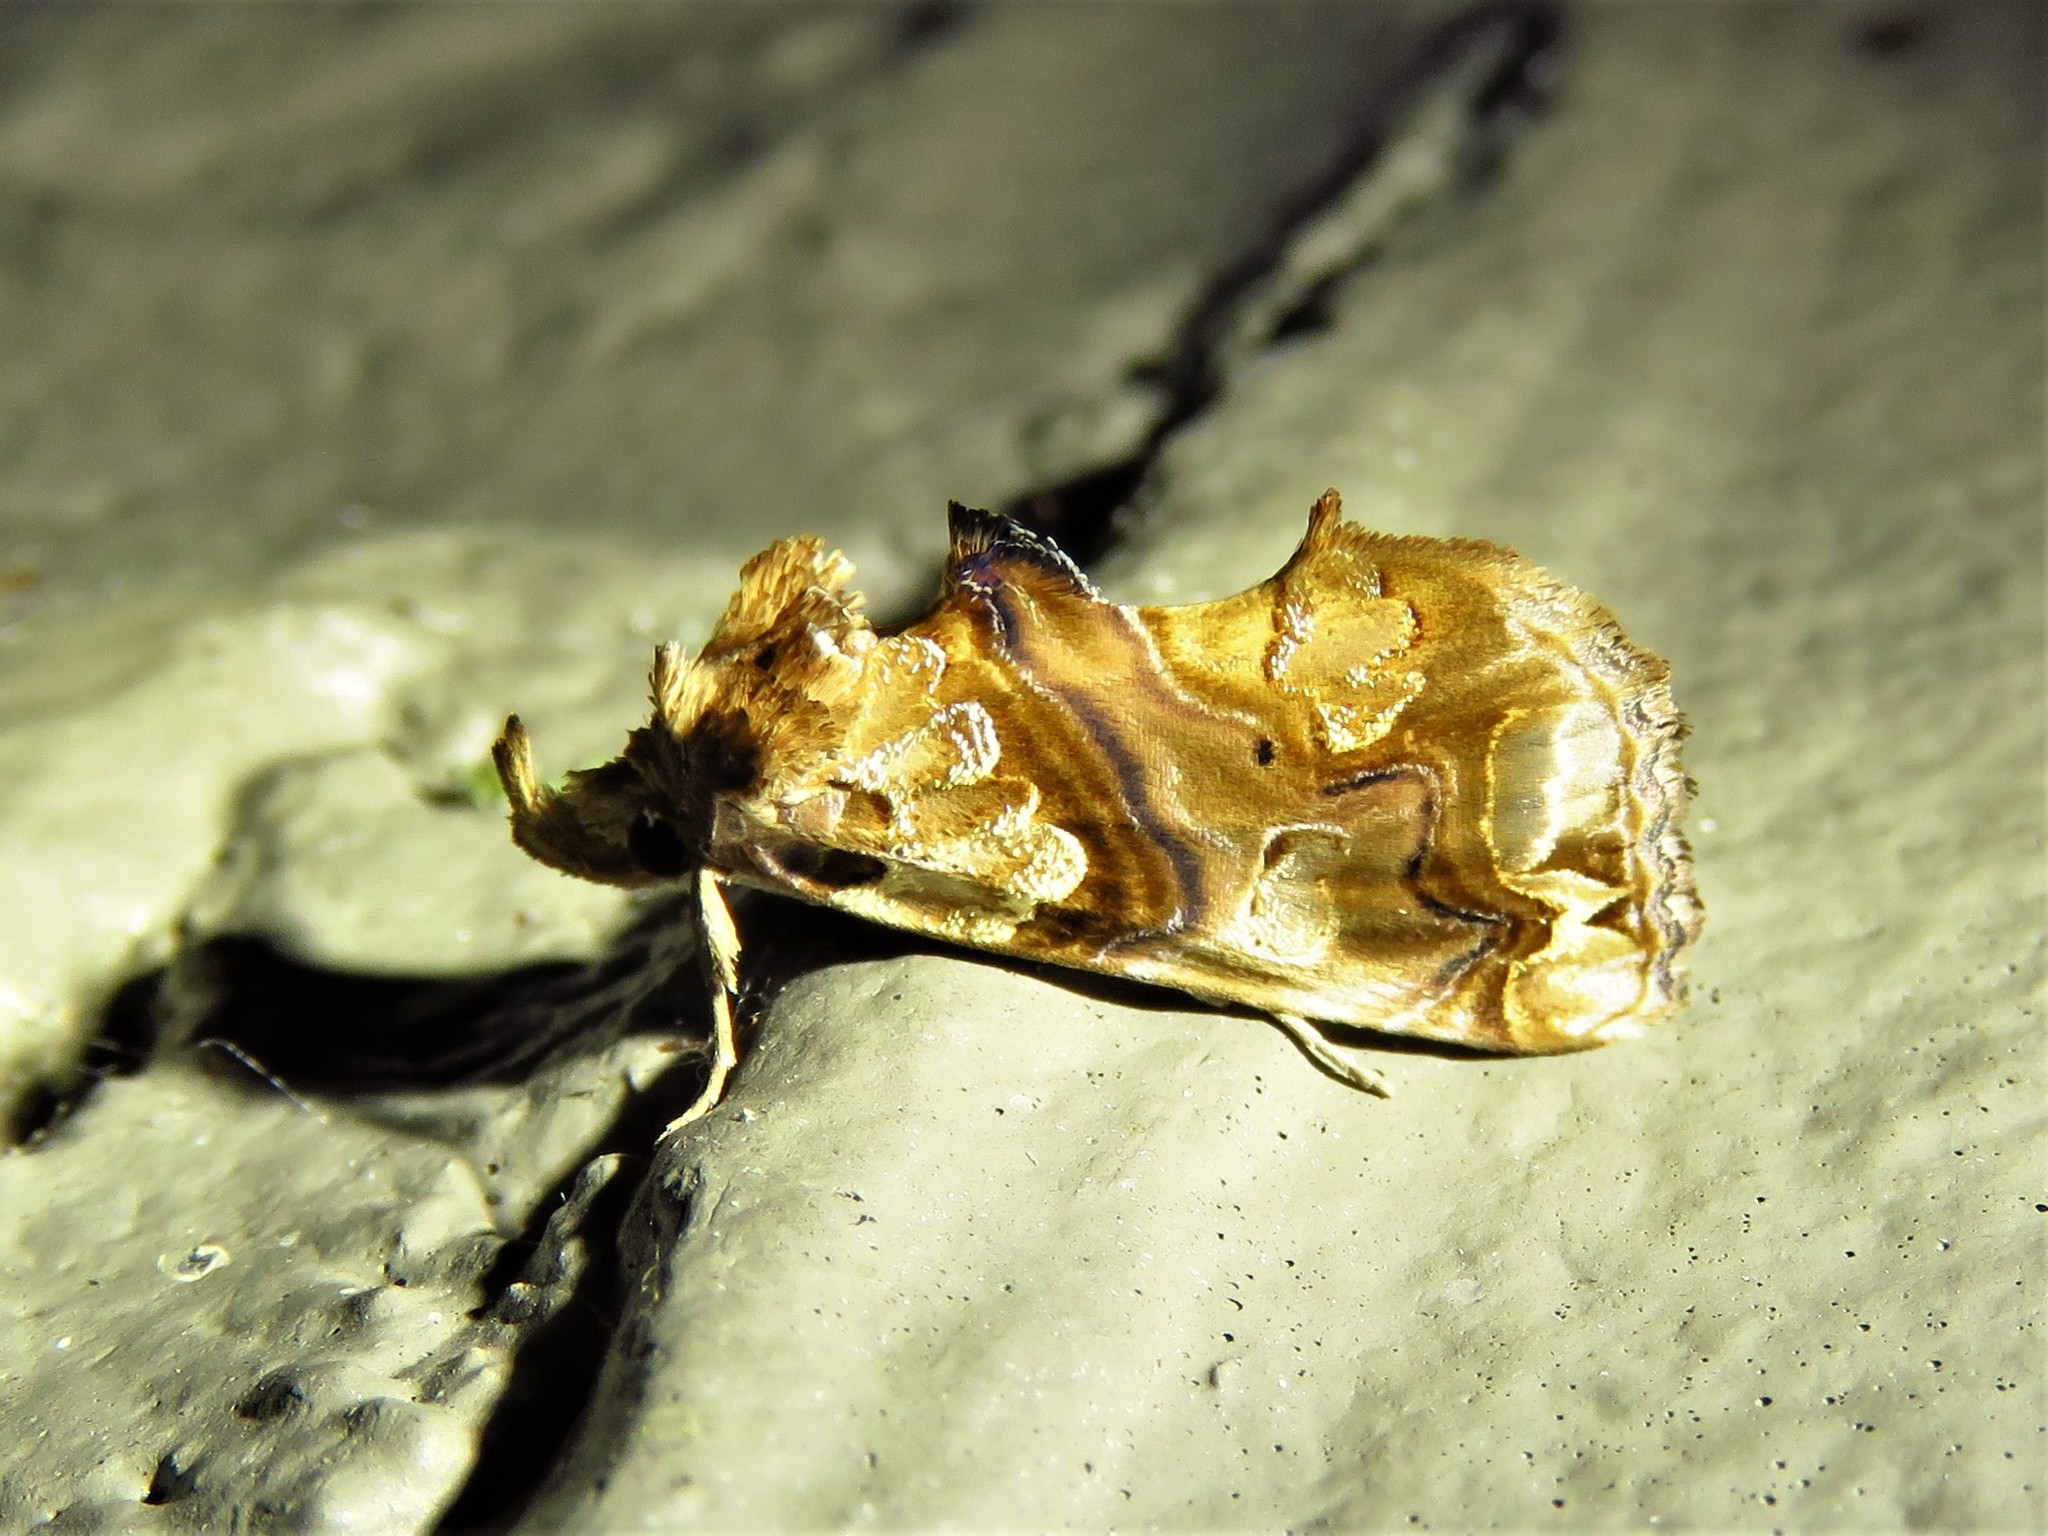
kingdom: Animalia
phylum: Arthropoda
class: Insecta
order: Lepidoptera
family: Erebidae
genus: Plusiodonta
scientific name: Plusiodonta compressipalpis
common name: Moonseed moth
